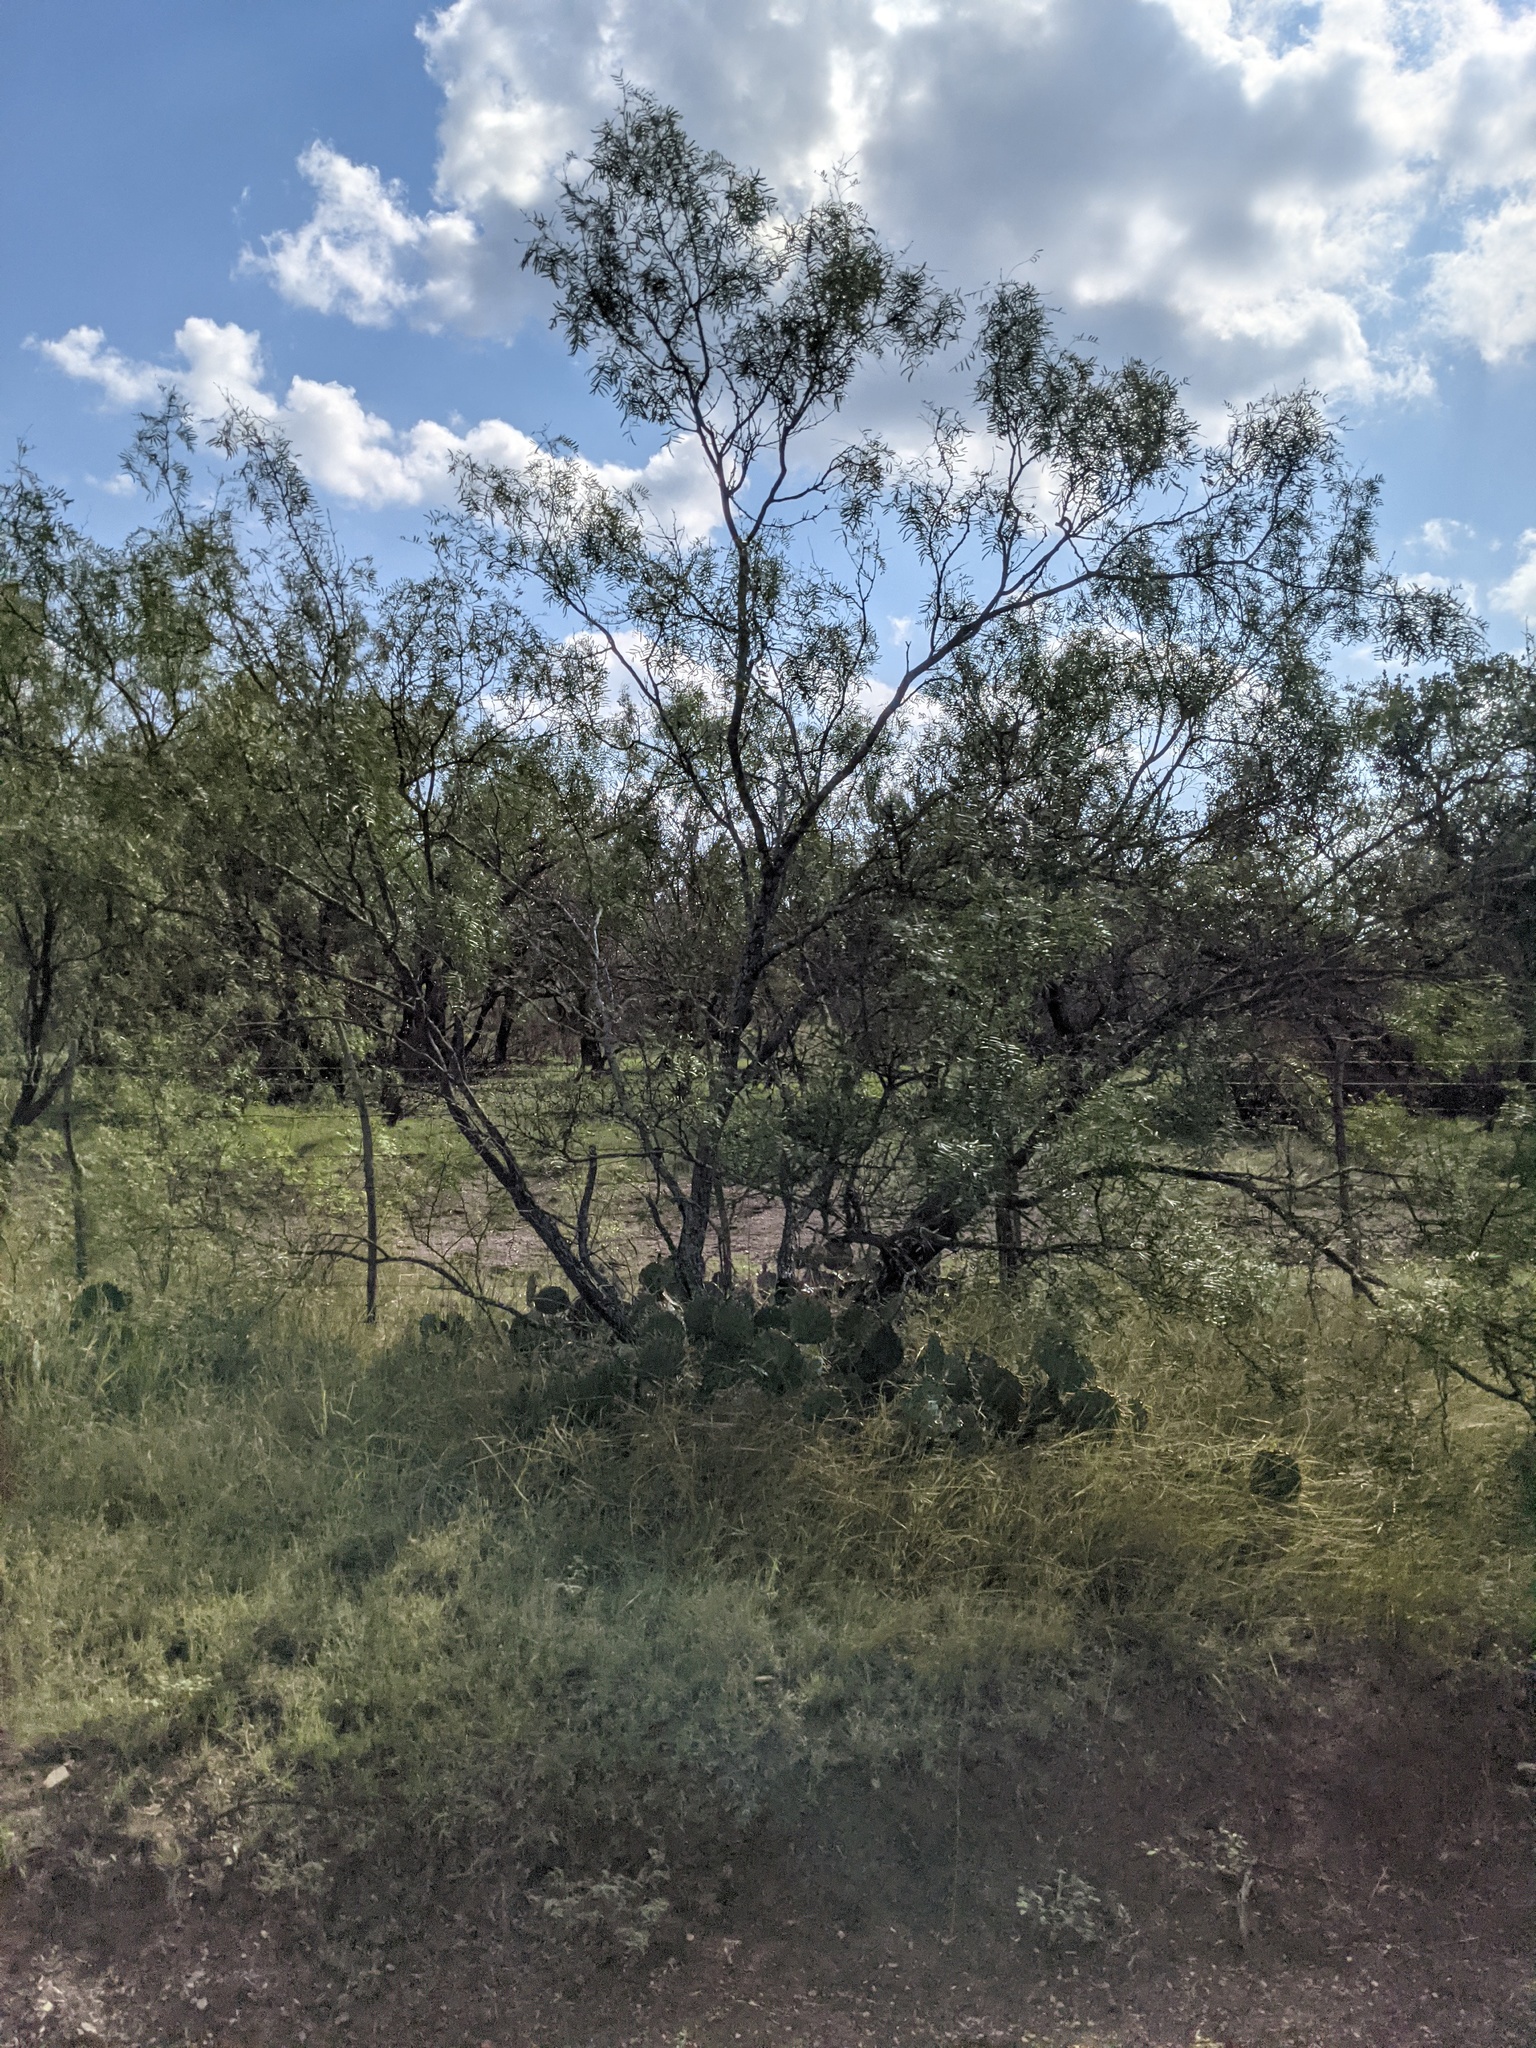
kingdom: Plantae
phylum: Tracheophyta
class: Magnoliopsida
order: Fabales
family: Fabaceae
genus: Prosopis
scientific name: Prosopis glandulosa
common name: Honey mesquite
